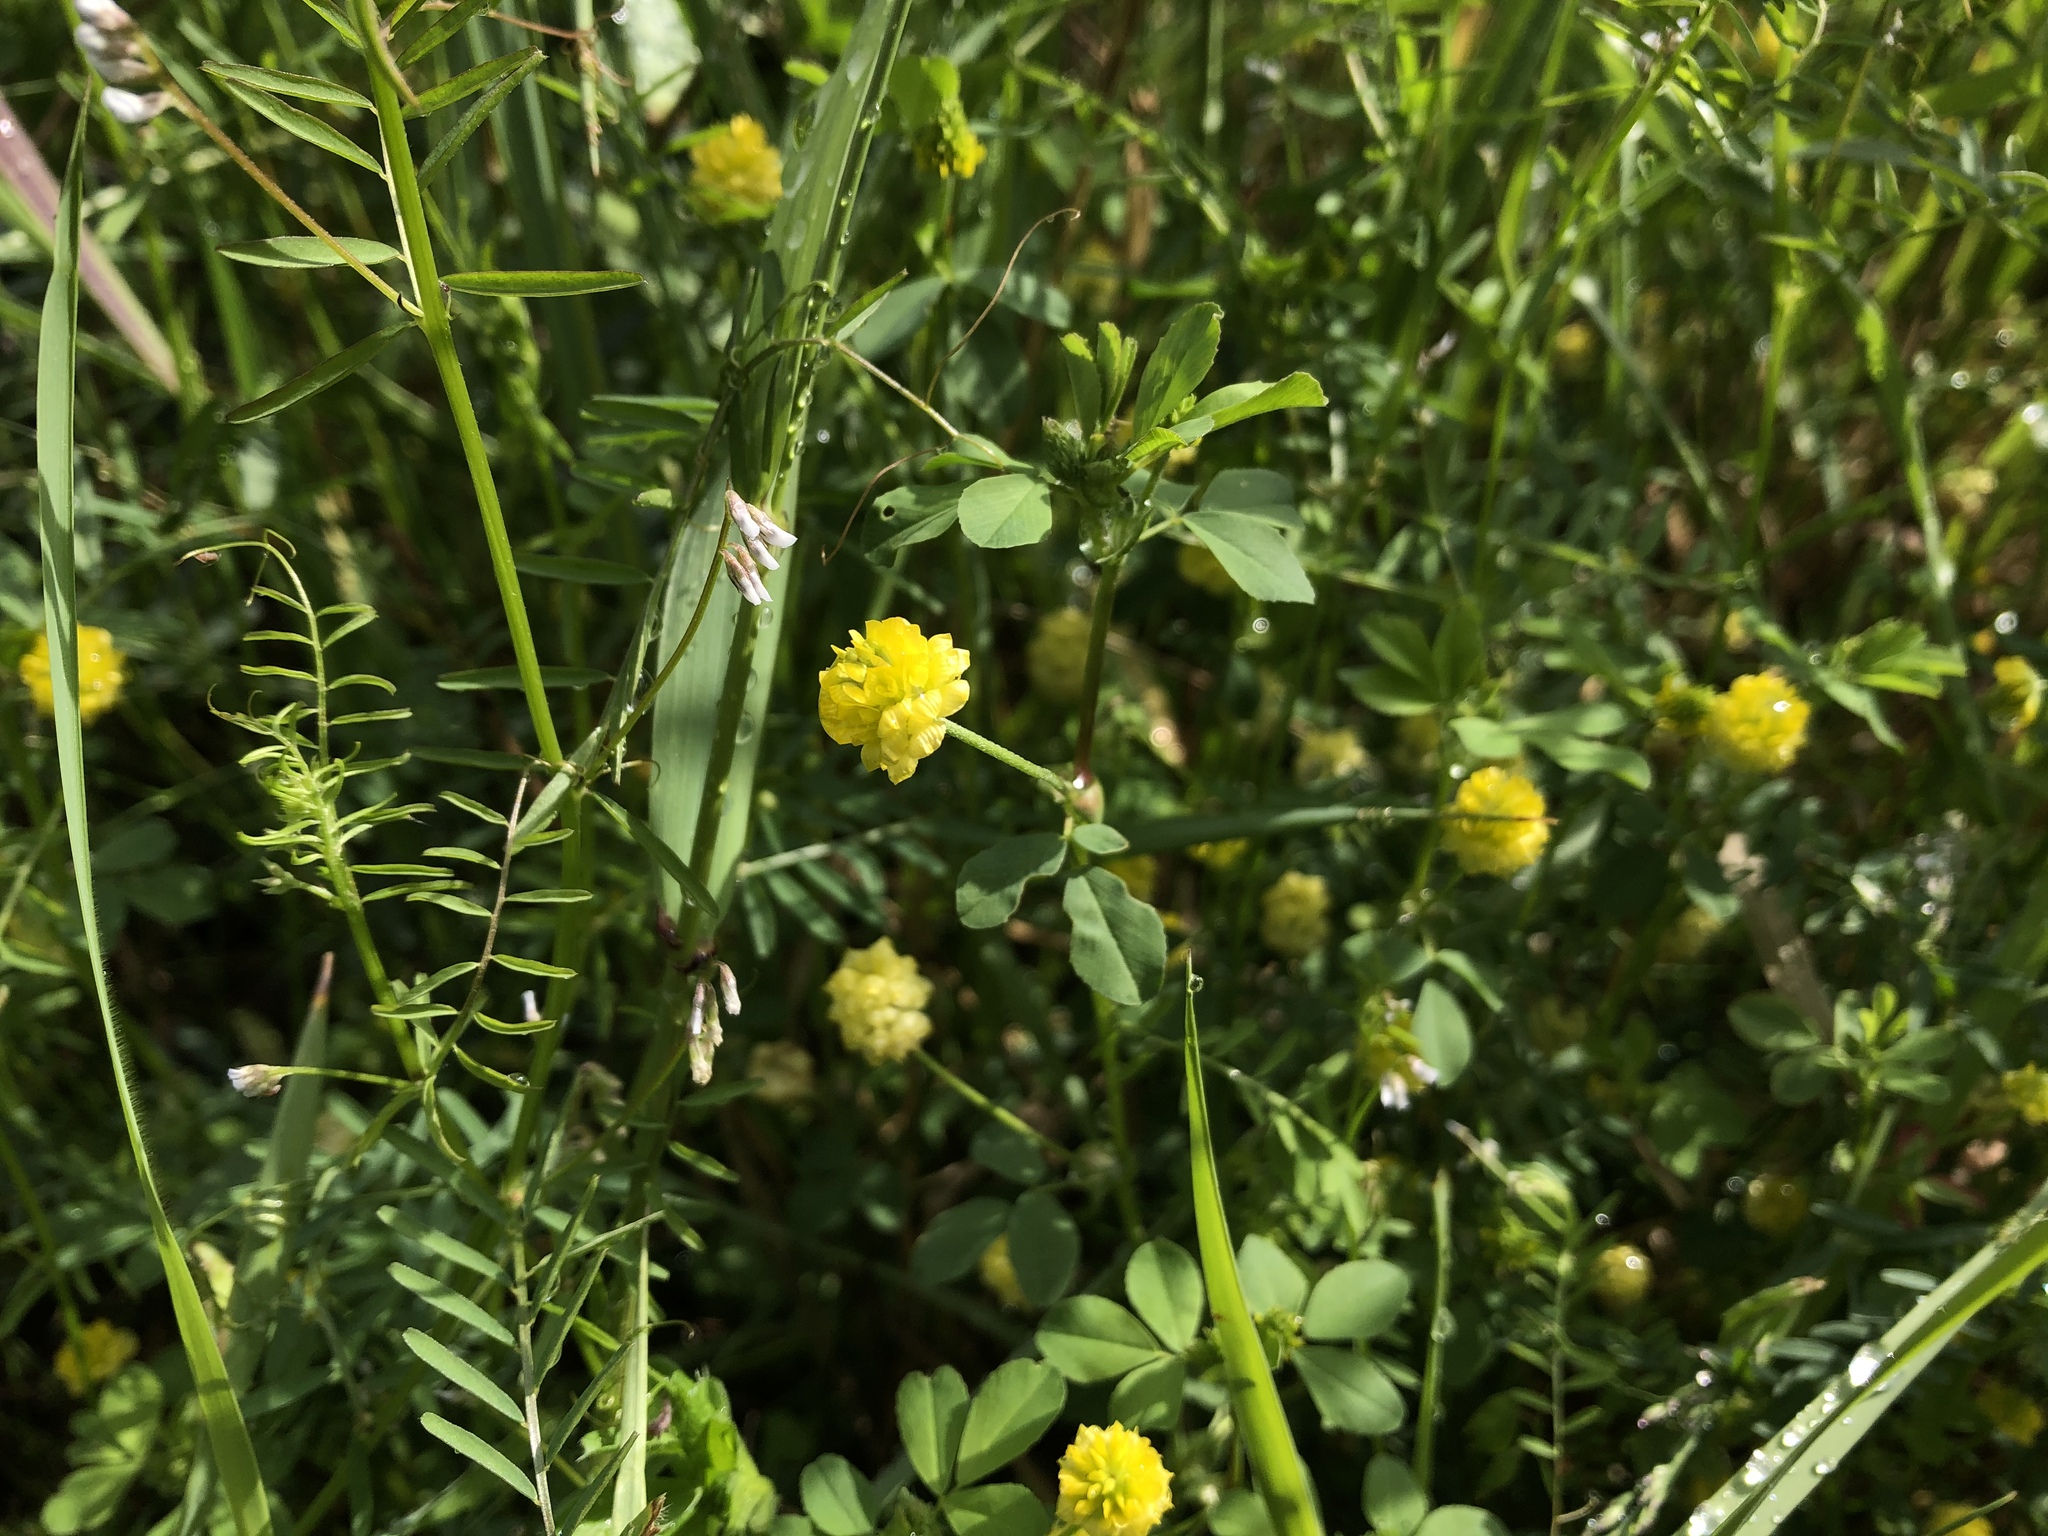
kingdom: Plantae
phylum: Tracheophyta
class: Magnoliopsida
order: Fabales
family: Fabaceae
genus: Trifolium
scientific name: Trifolium campestre
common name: Field clover
